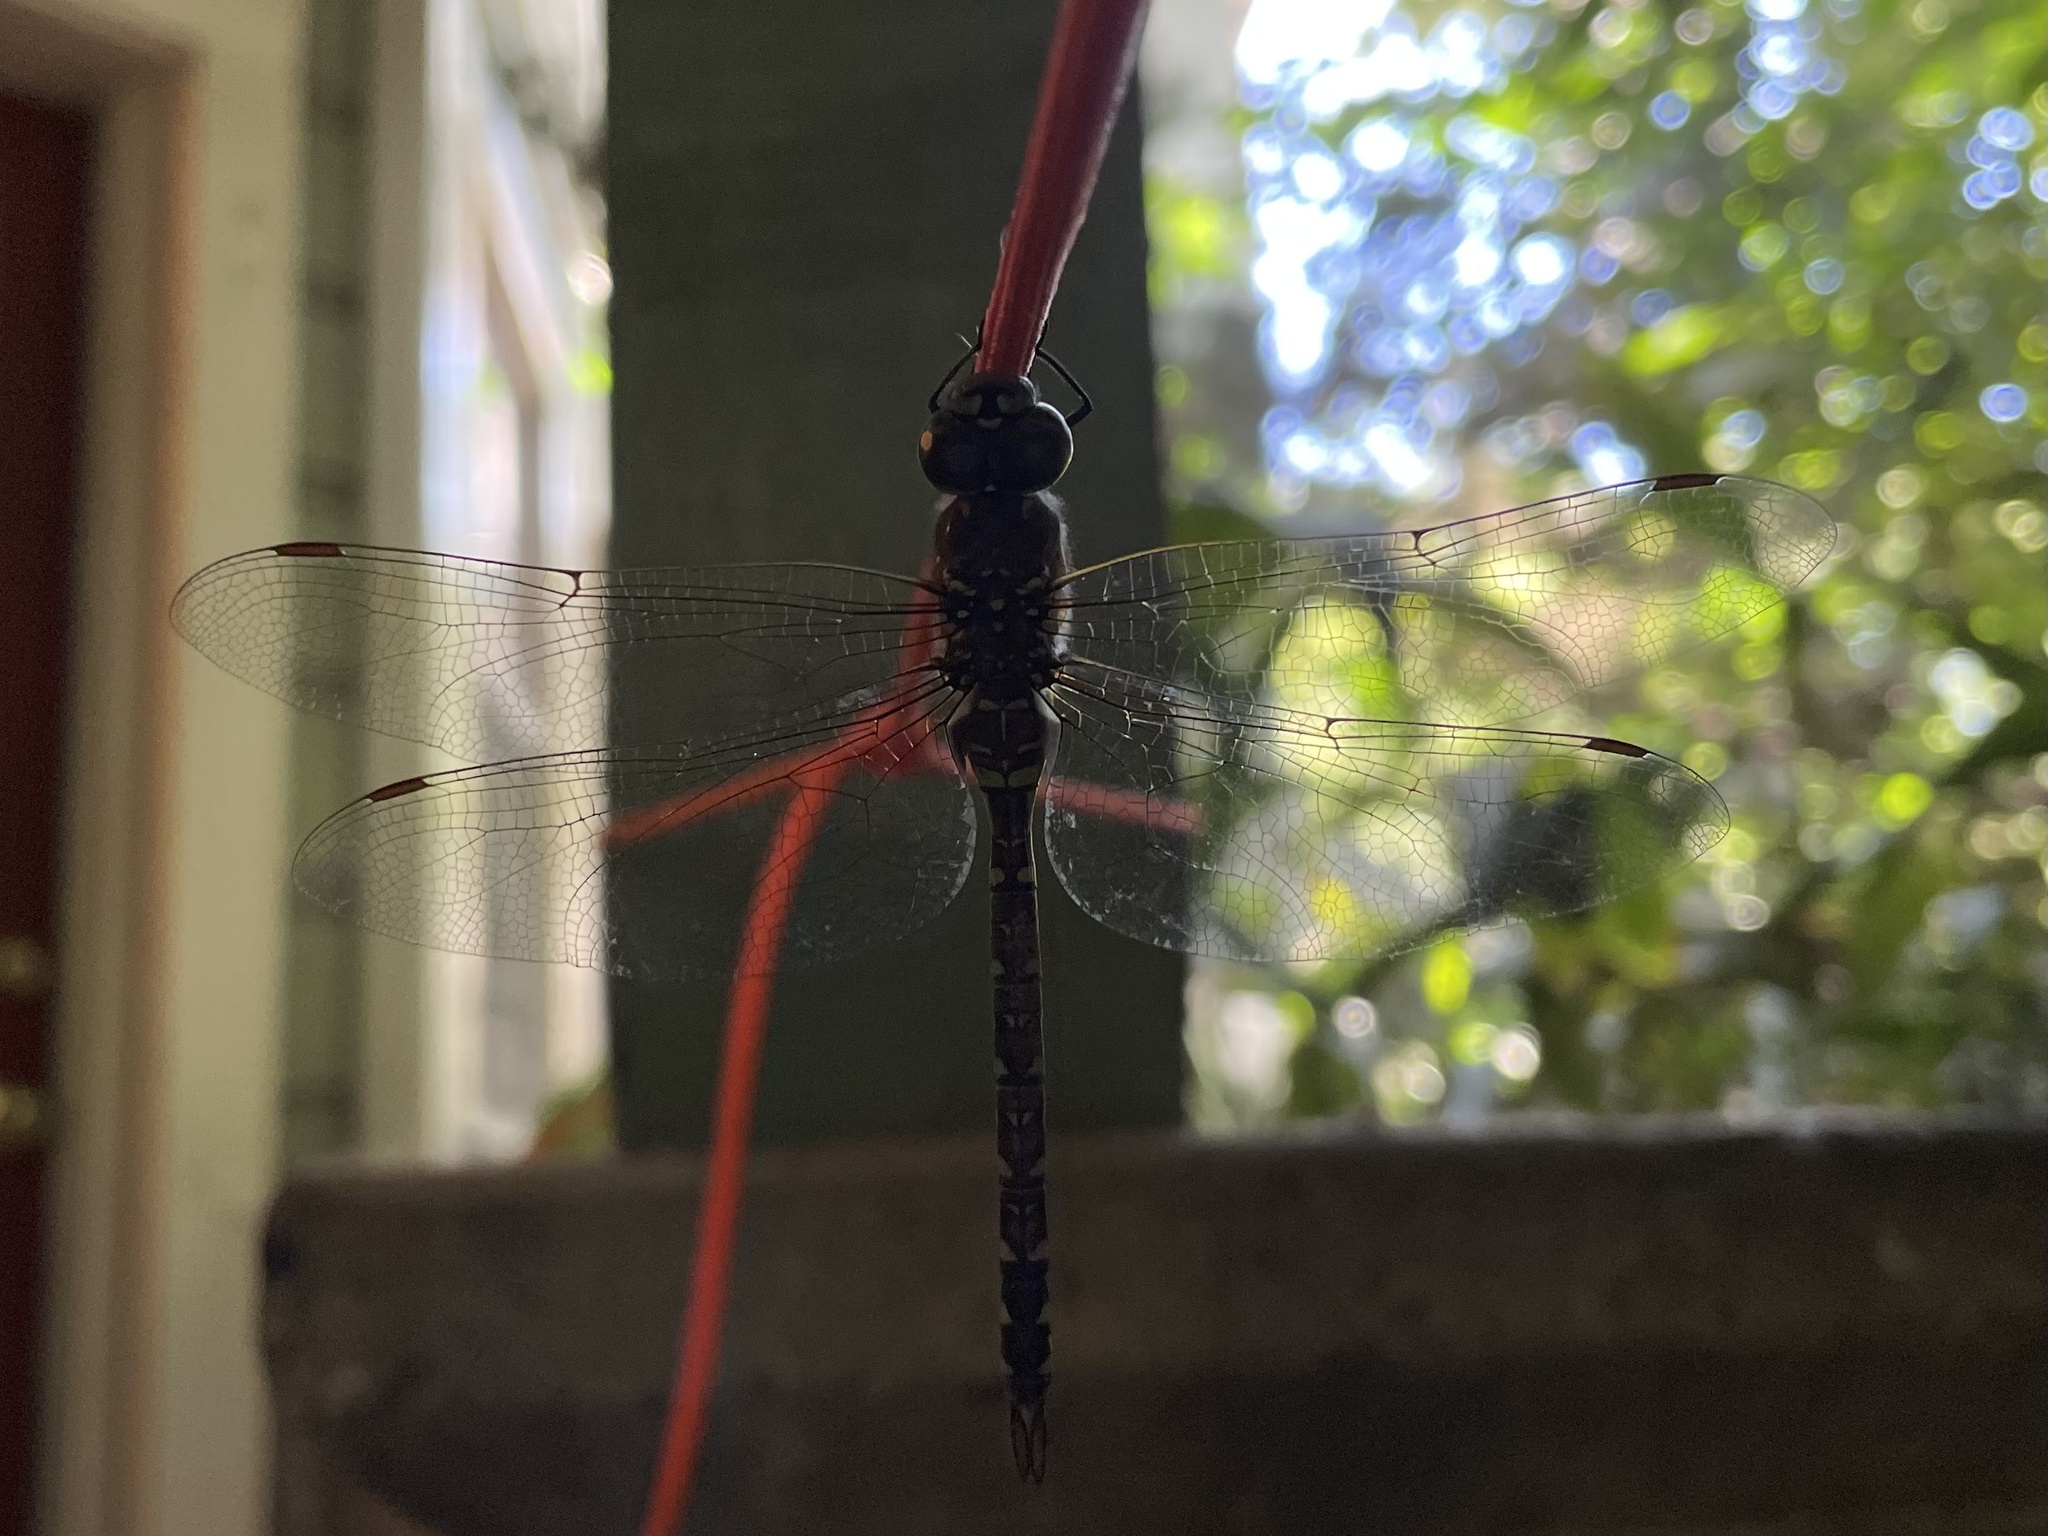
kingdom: Animalia
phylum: Arthropoda
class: Insecta
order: Odonata
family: Aeshnidae
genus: Rhionaeschna
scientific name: Rhionaeschna multicolor
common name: Blue-eyed darner
